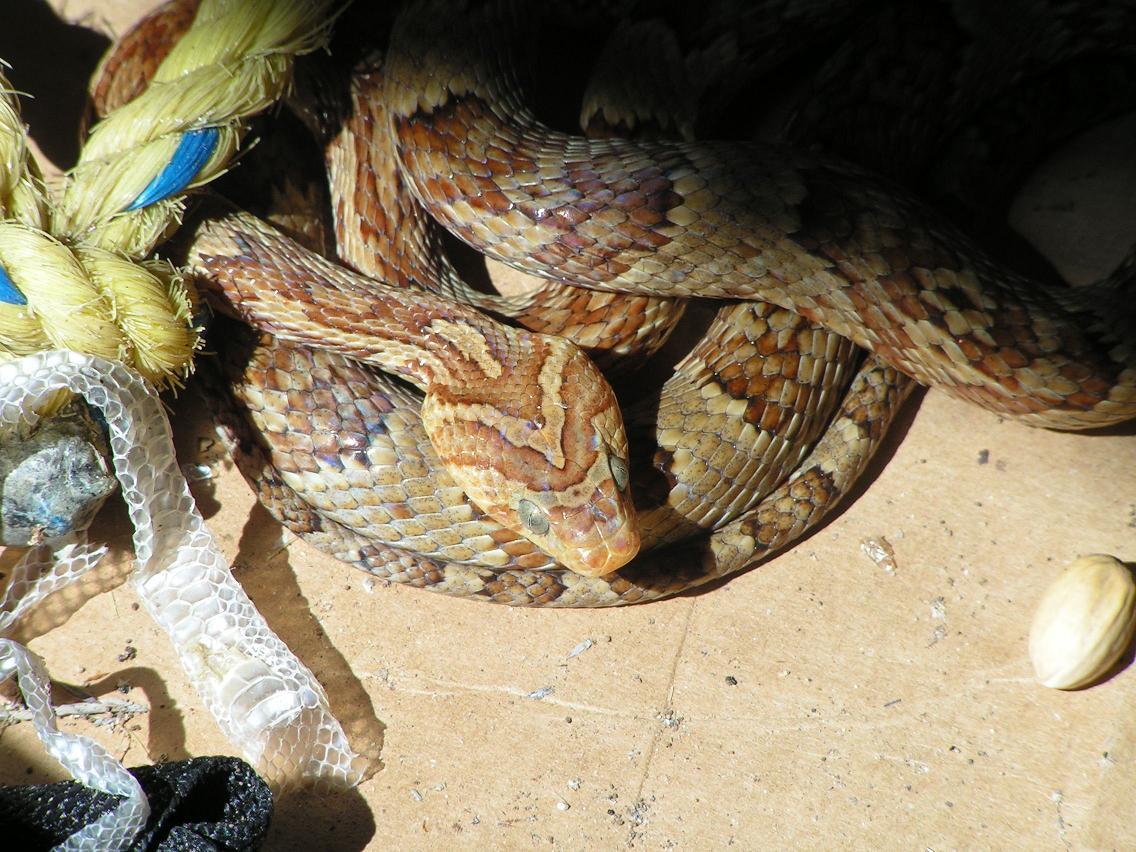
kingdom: Animalia
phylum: Chordata
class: Squamata
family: Colubridae
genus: Trimorphodon
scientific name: Trimorphodon paucimaculatus
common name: Sinaloan lyresnake
